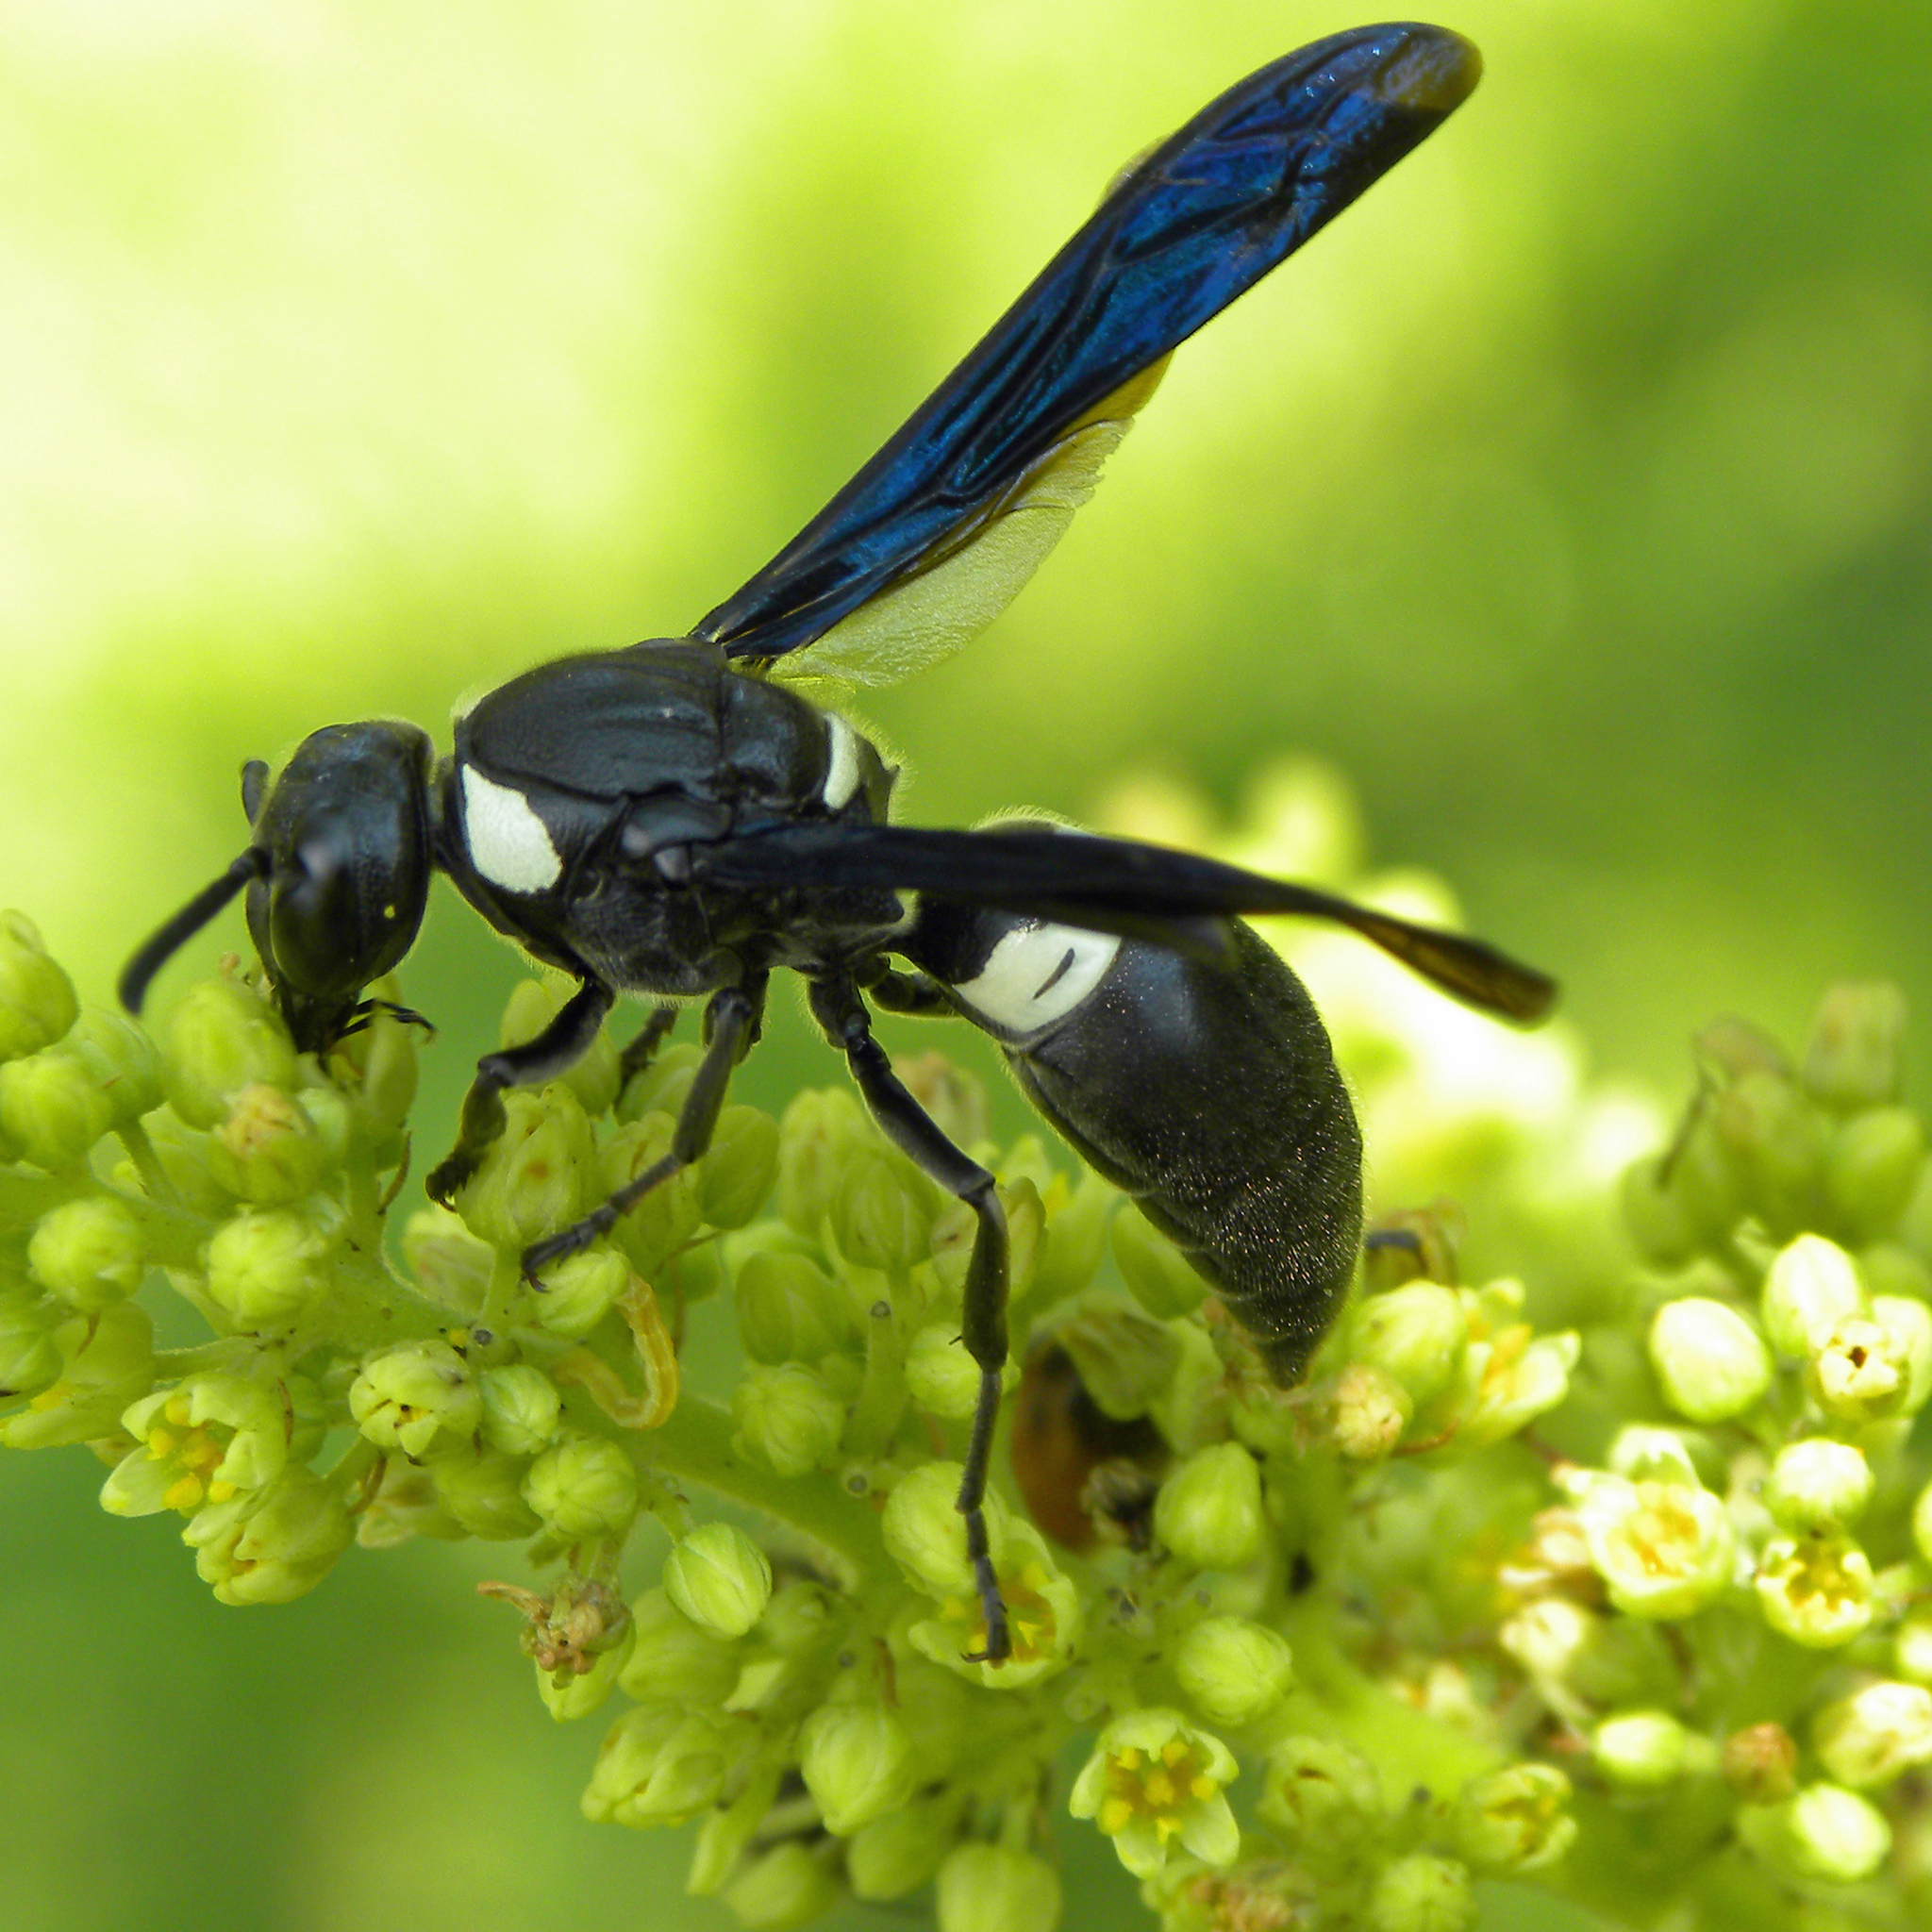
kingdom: Animalia
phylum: Arthropoda
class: Insecta
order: Hymenoptera
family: Eumenidae
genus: Monobia
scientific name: Monobia quadridens
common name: Four-toothed mason wasp
